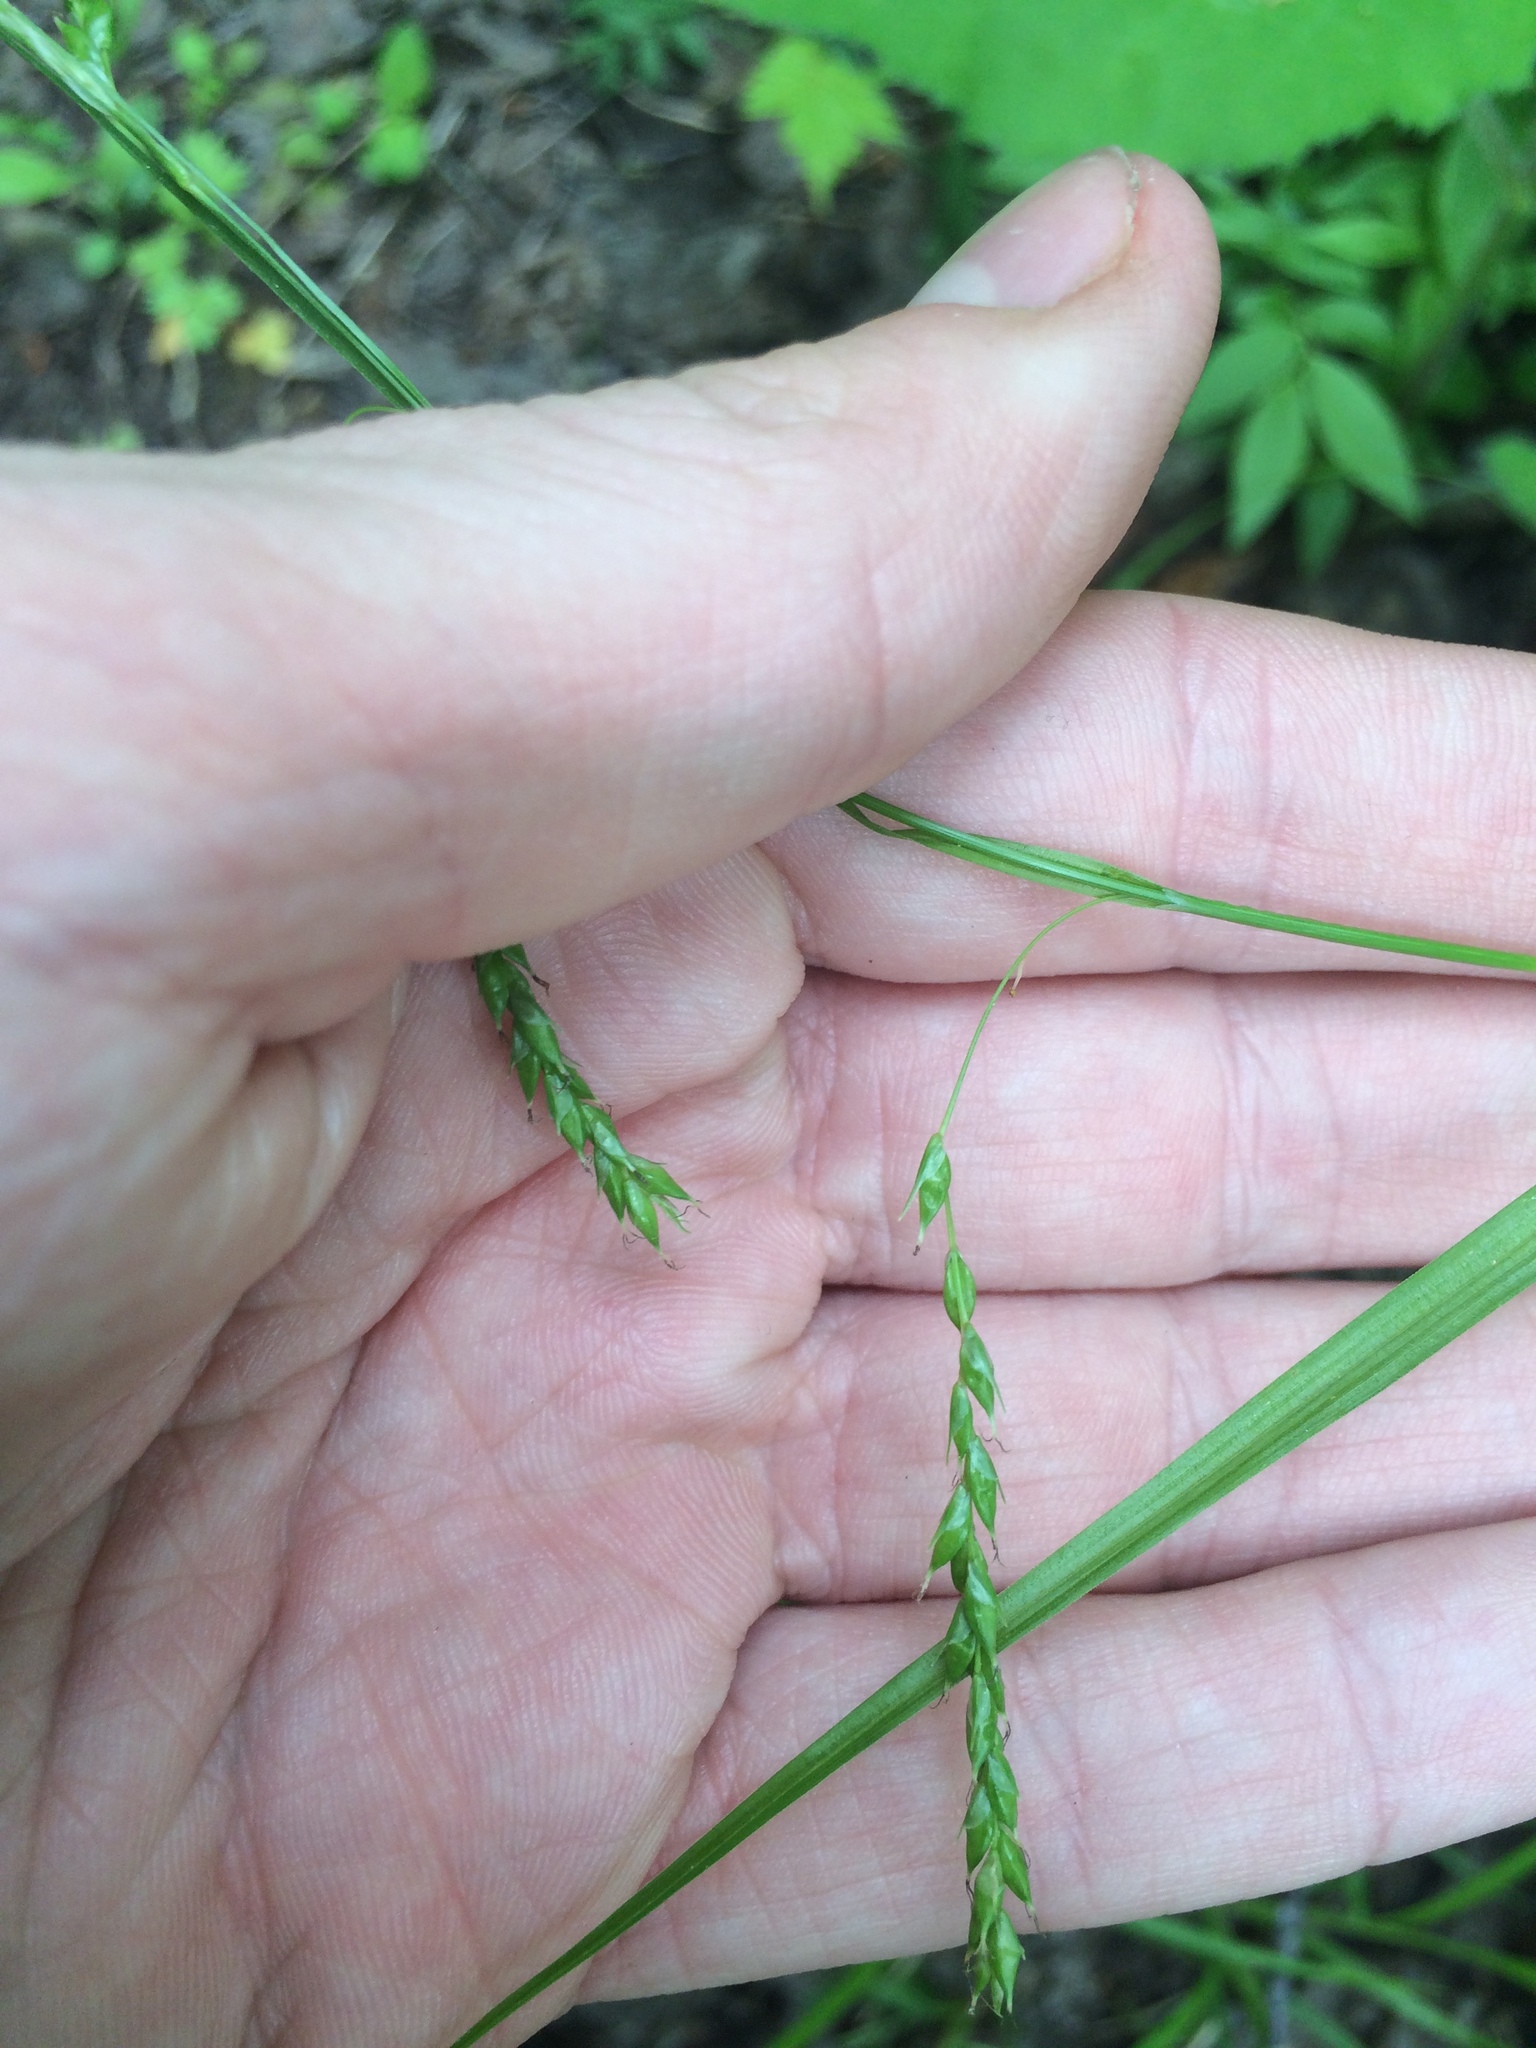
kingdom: Plantae
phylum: Tracheophyta
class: Liliopsida
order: Poales
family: Cyperaceae
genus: Carex
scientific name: Carex arctata
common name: Black sedge
